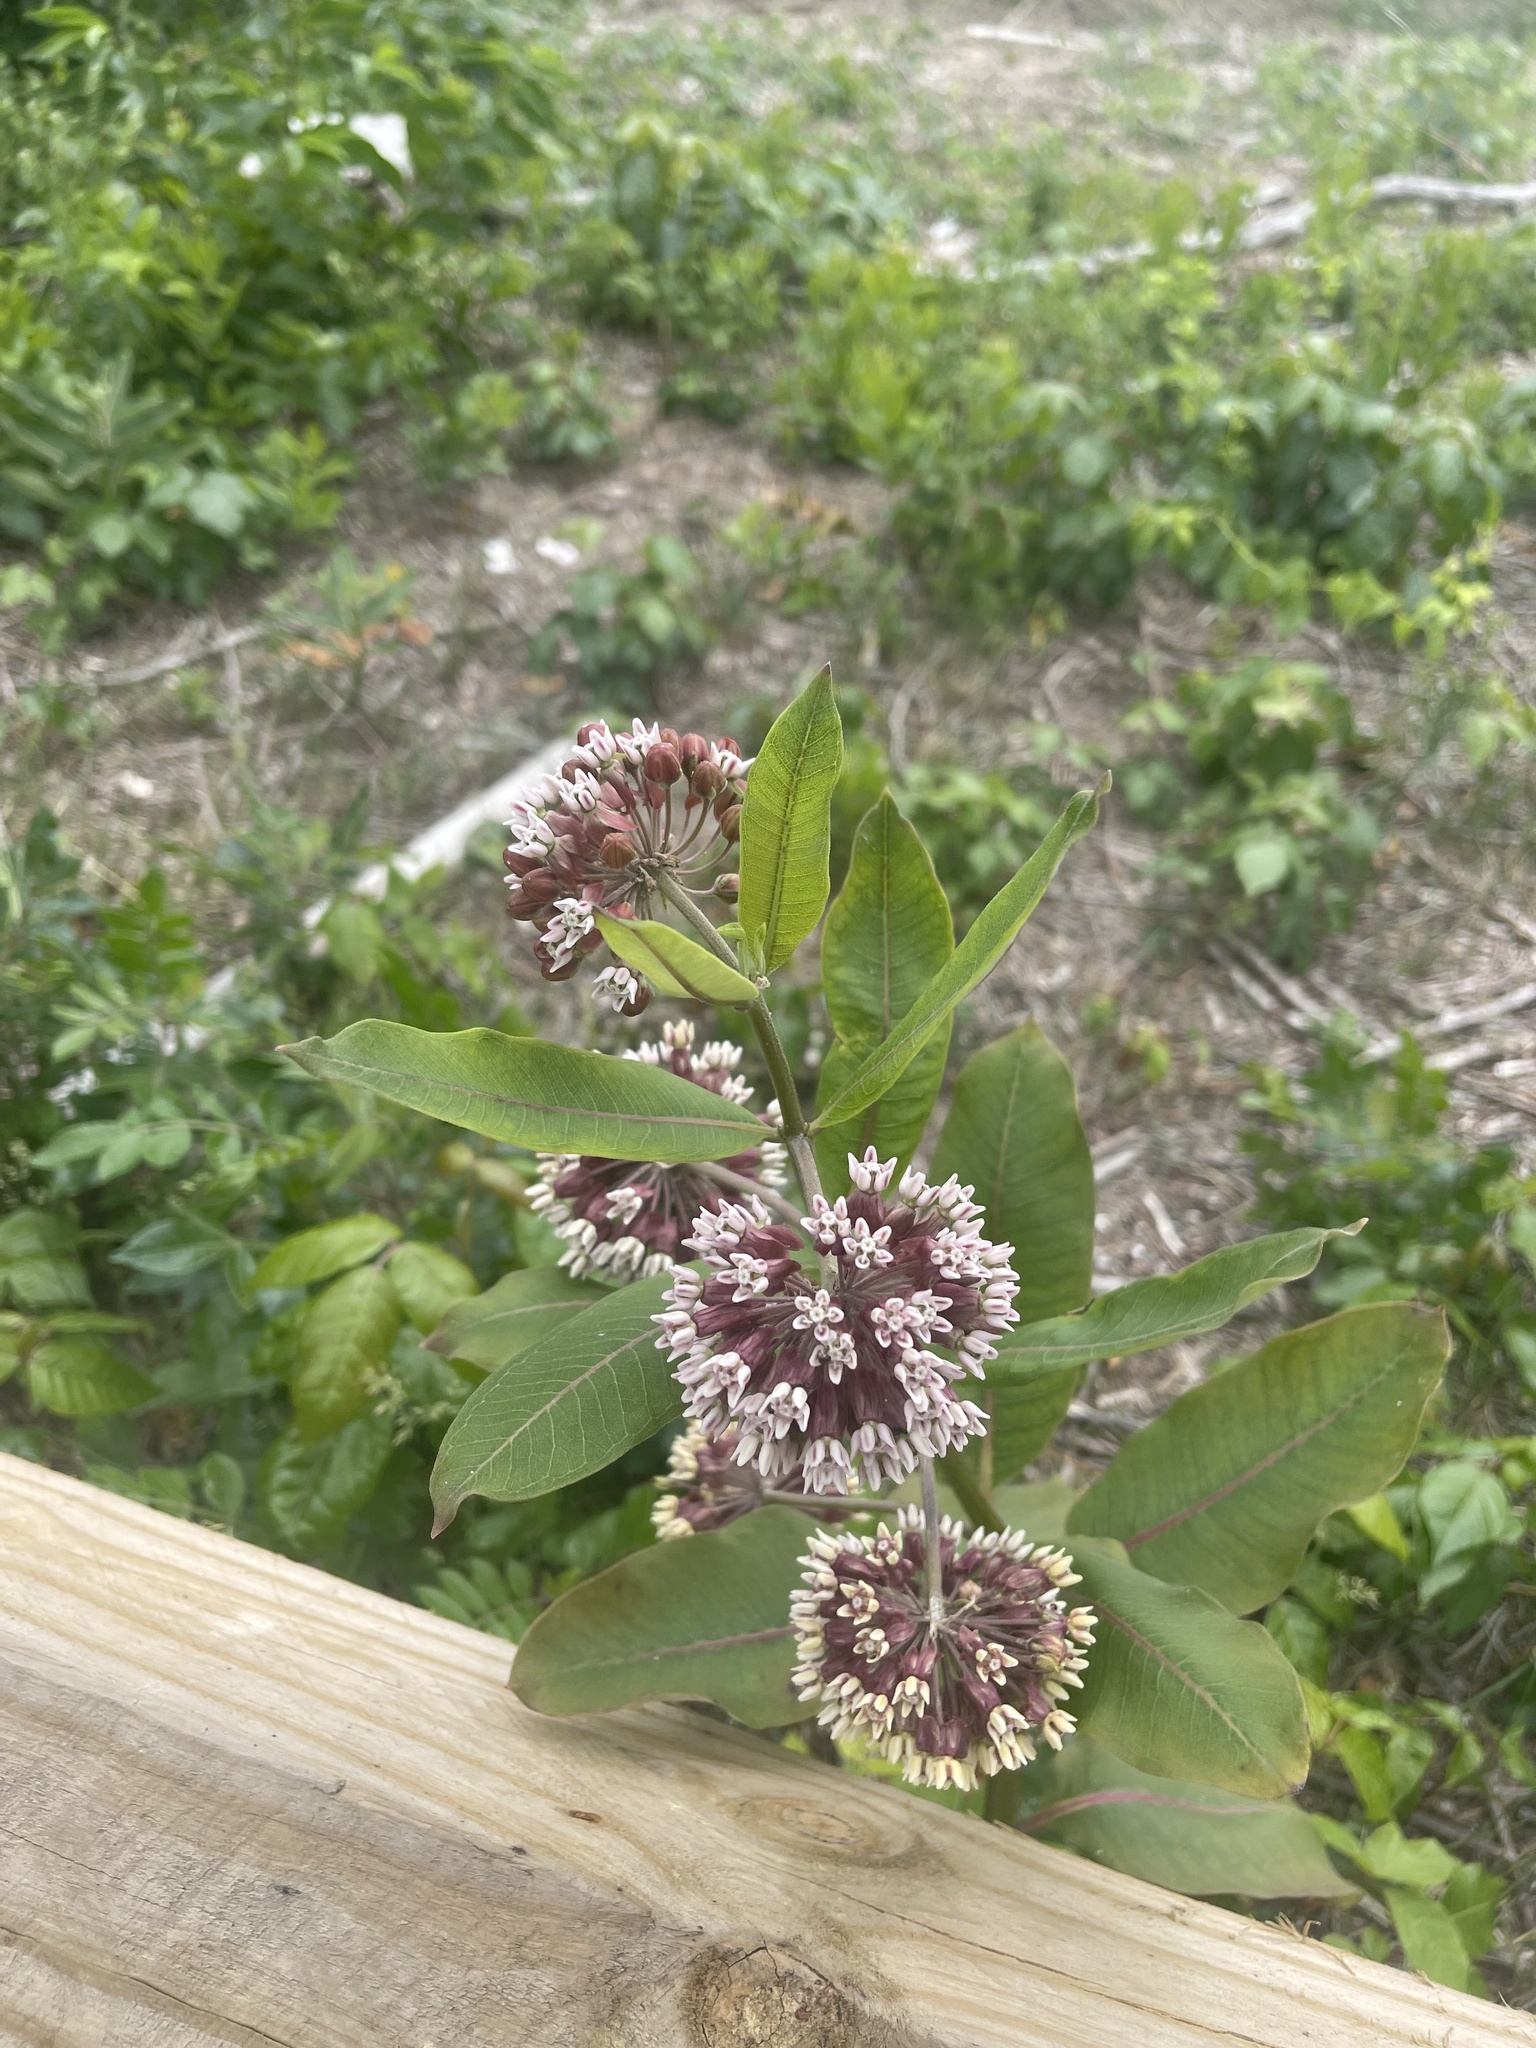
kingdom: Plantae
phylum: Tracheophyta
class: Magnoliopsida
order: Gentianales
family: Apocynaceae
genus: Asclepias
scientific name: Asclepias syriaca
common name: Common milkweed
